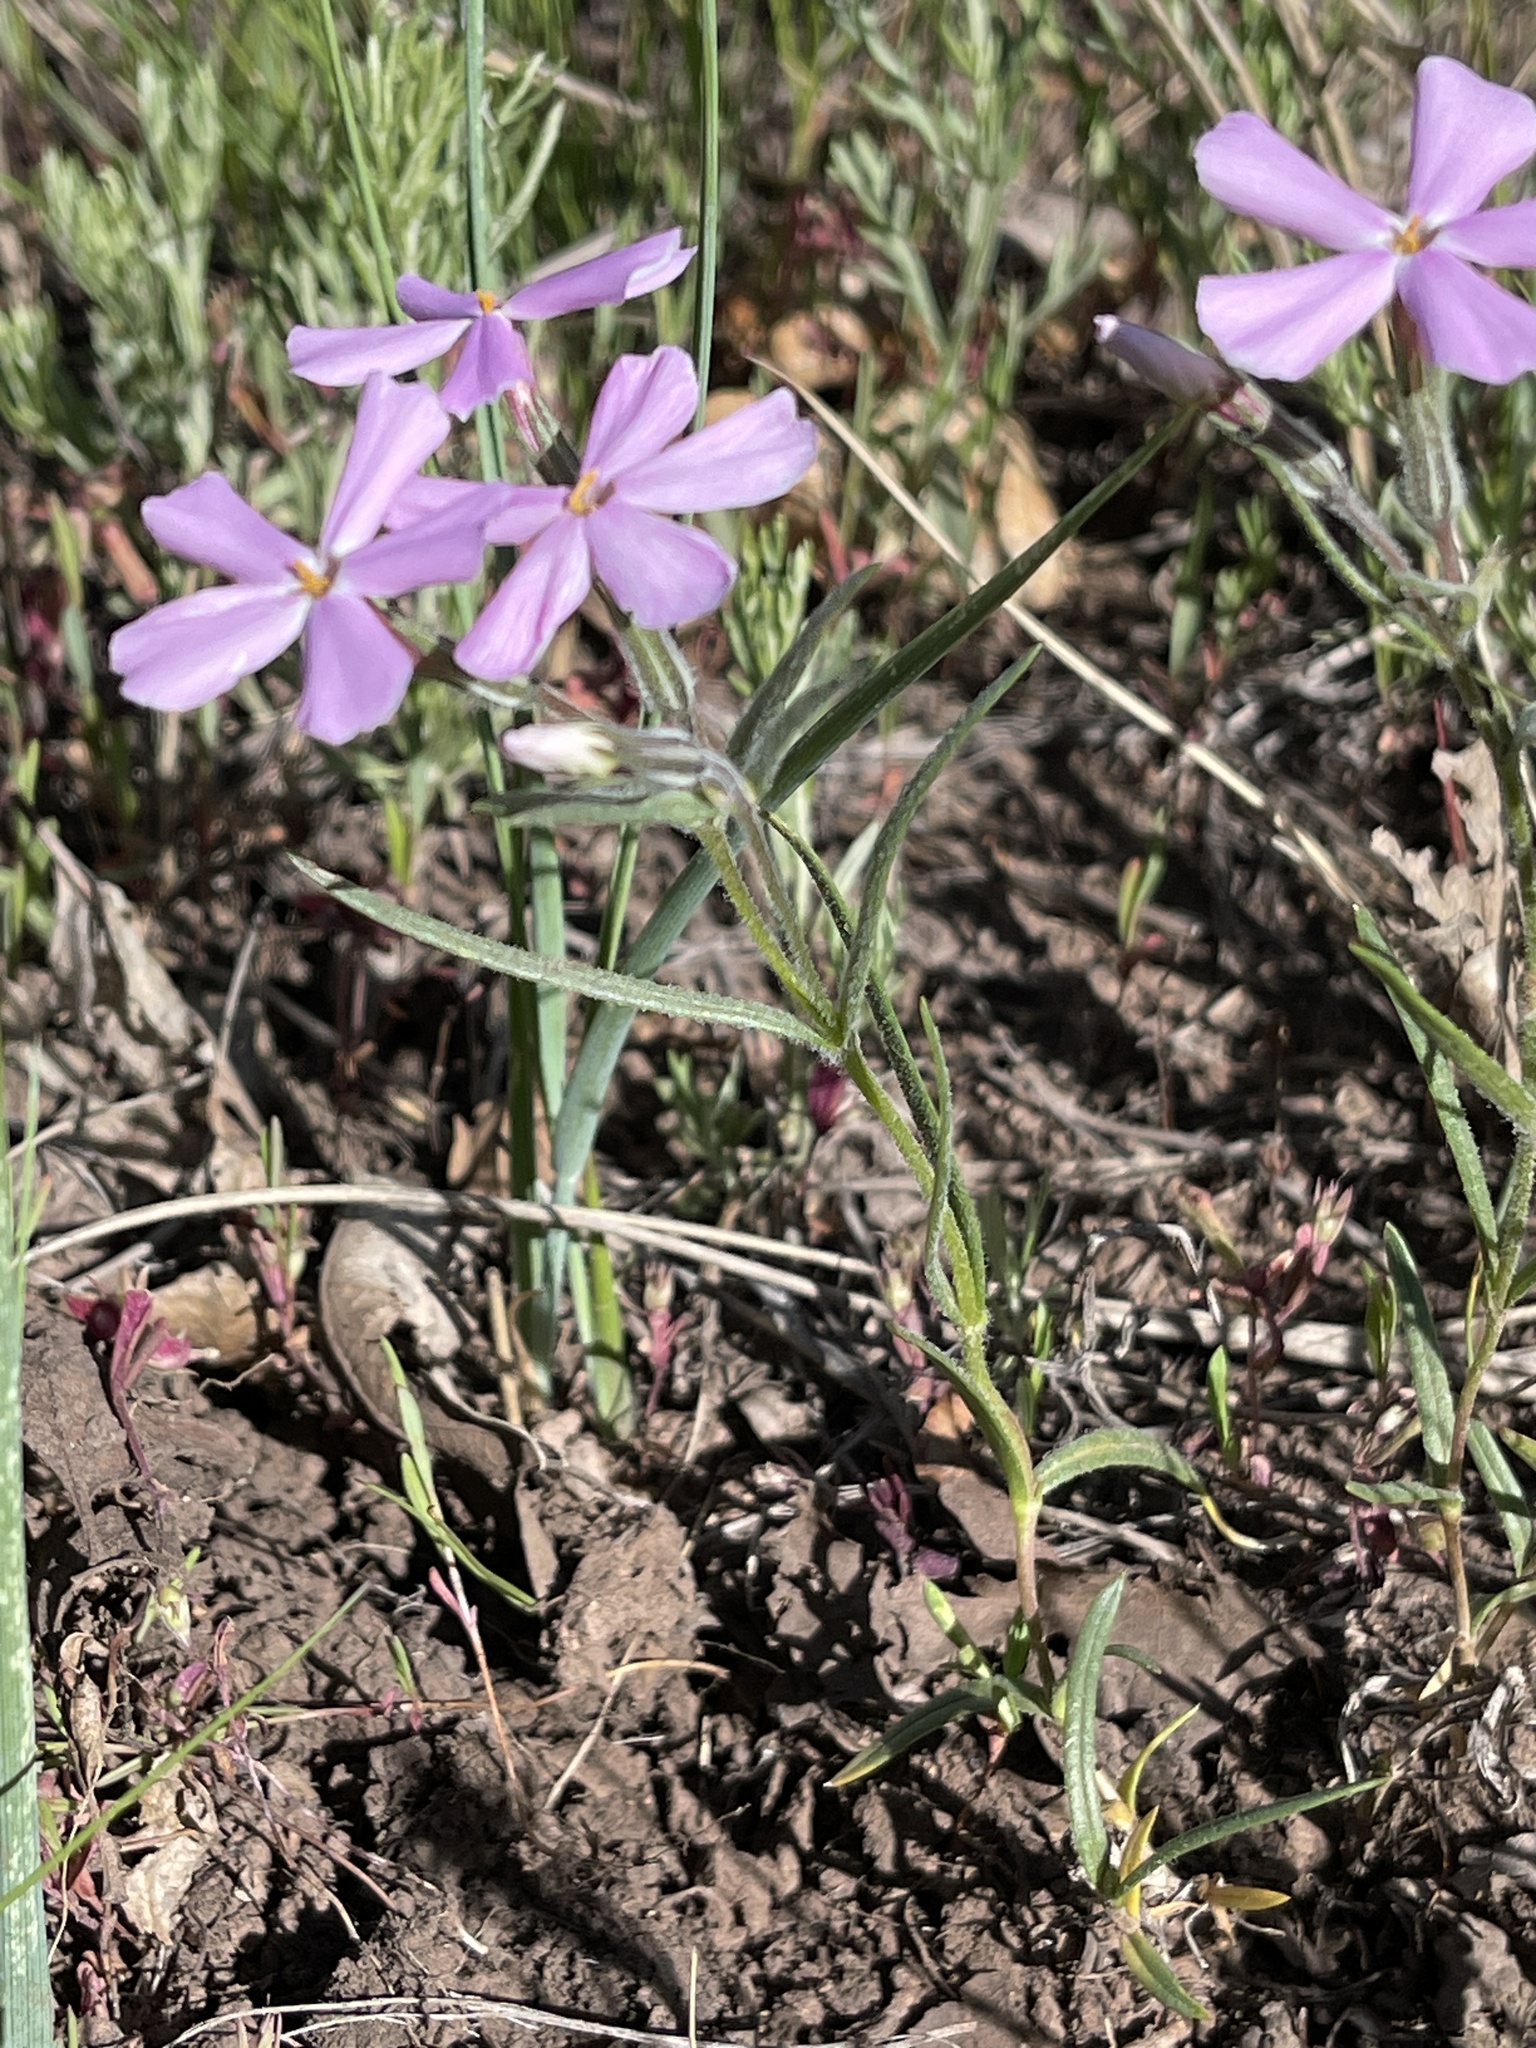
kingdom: Plantae
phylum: Tracheophyta
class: Magnoliopsida
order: Ericales
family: Polemoniaceae
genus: Phlox
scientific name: Phlox longifolia
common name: Longleaf phlox
